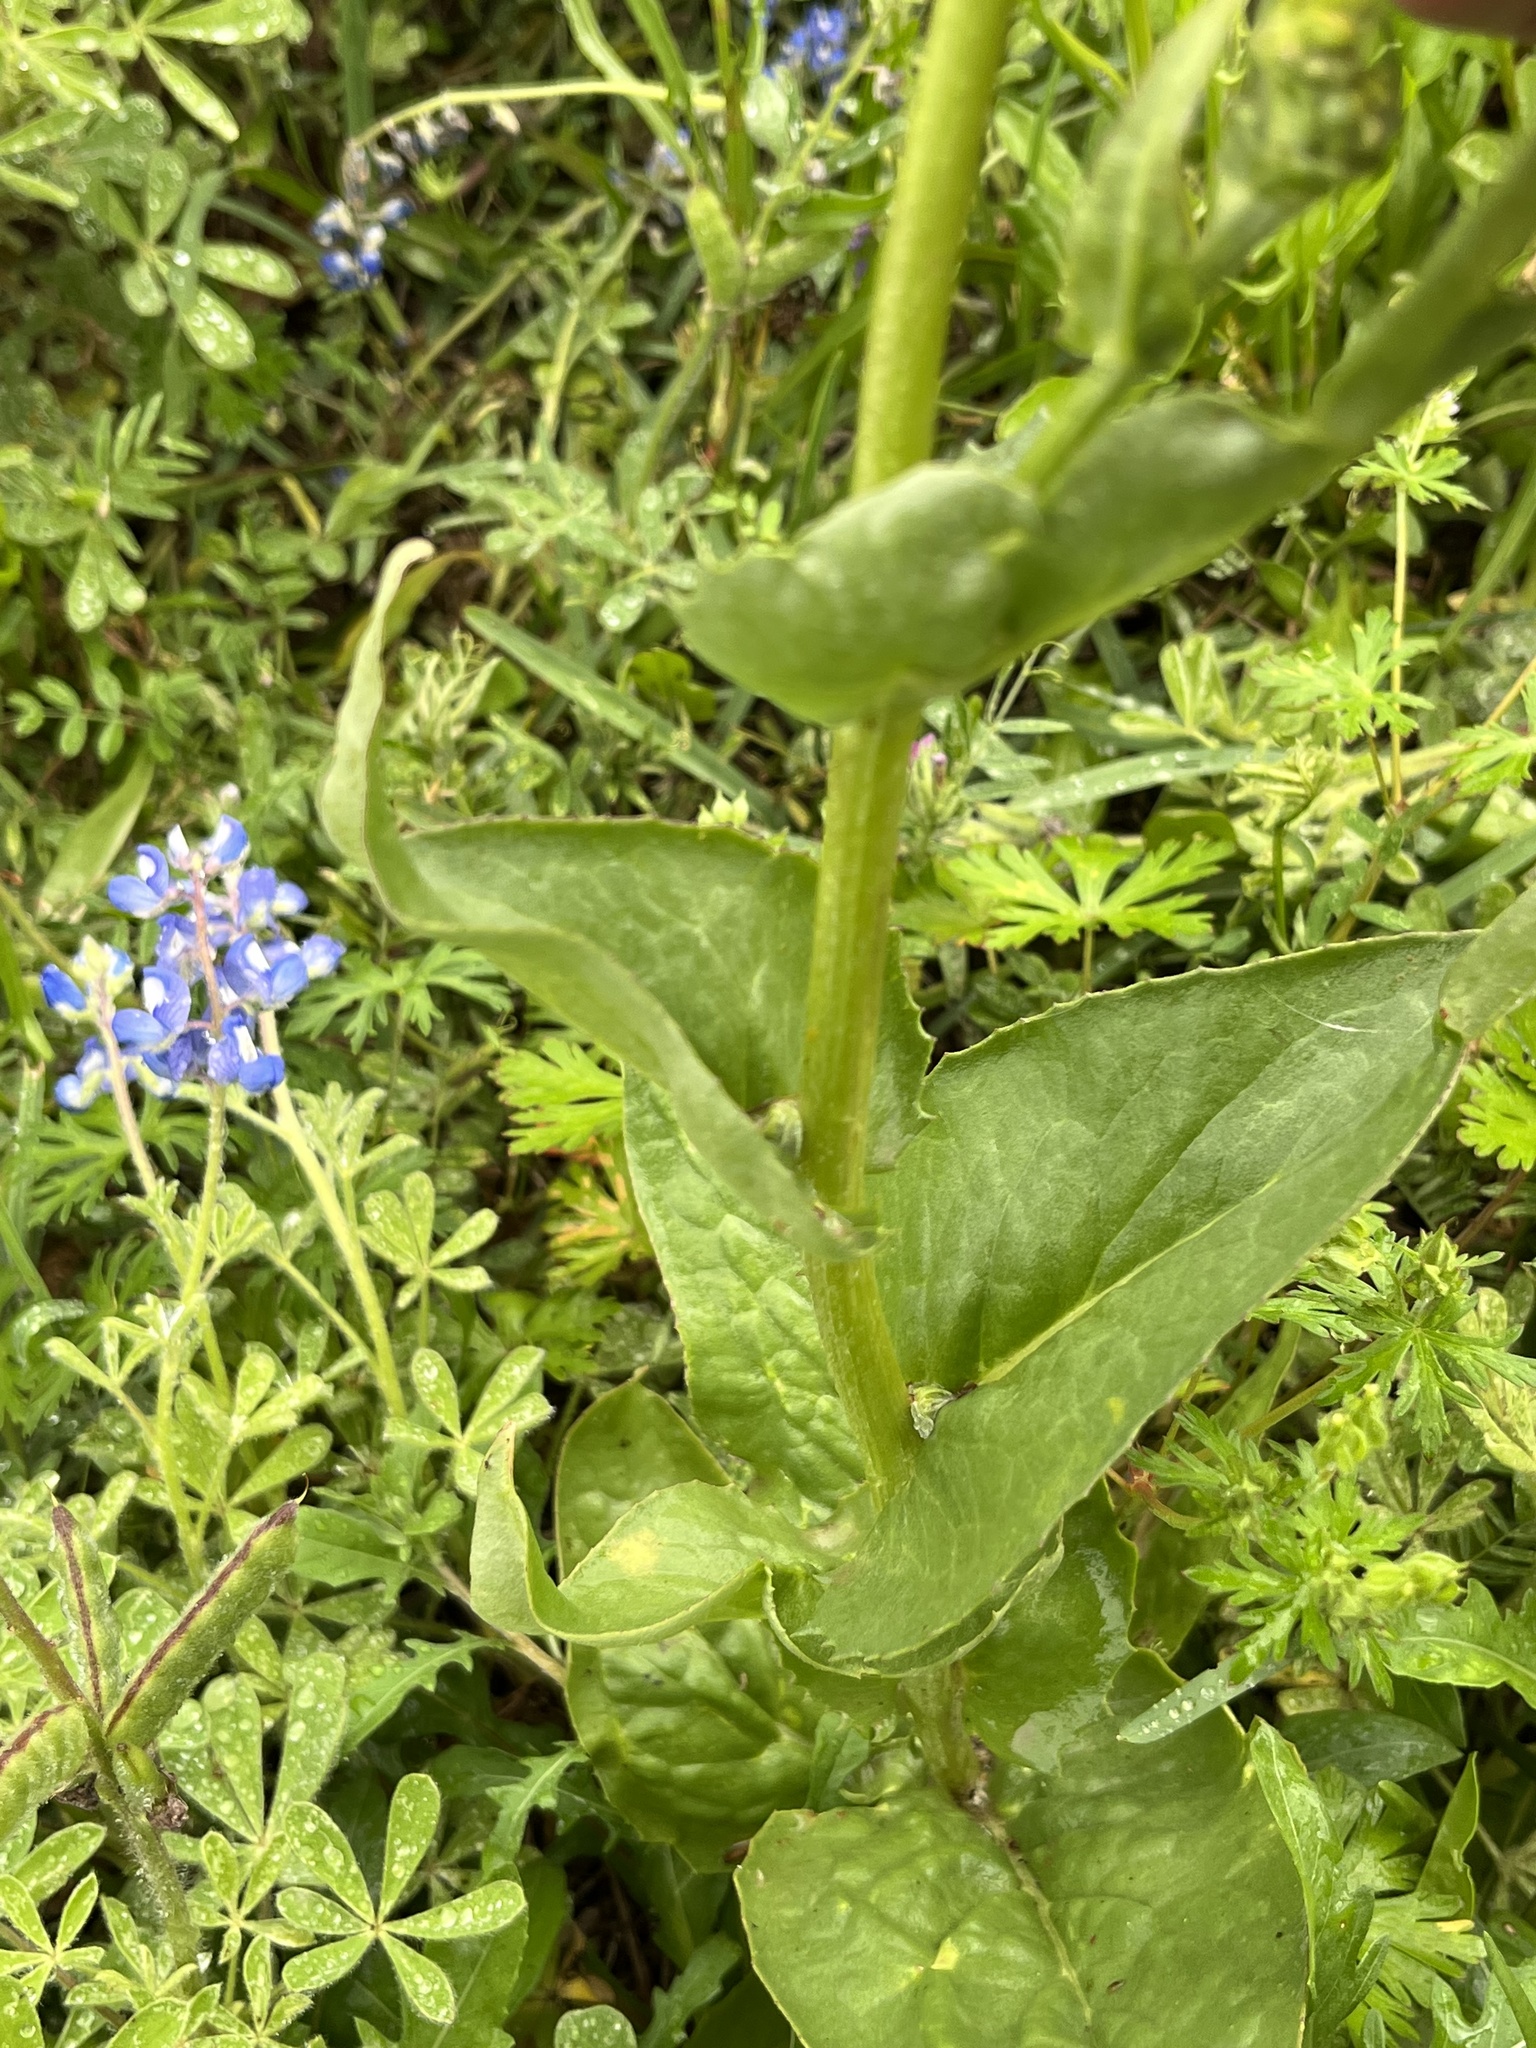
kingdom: Plantae
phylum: Tracheophyta
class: Magnoliopsida
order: Asterales
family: Asteraceae
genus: Senecio
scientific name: Senecio ampullaceus
